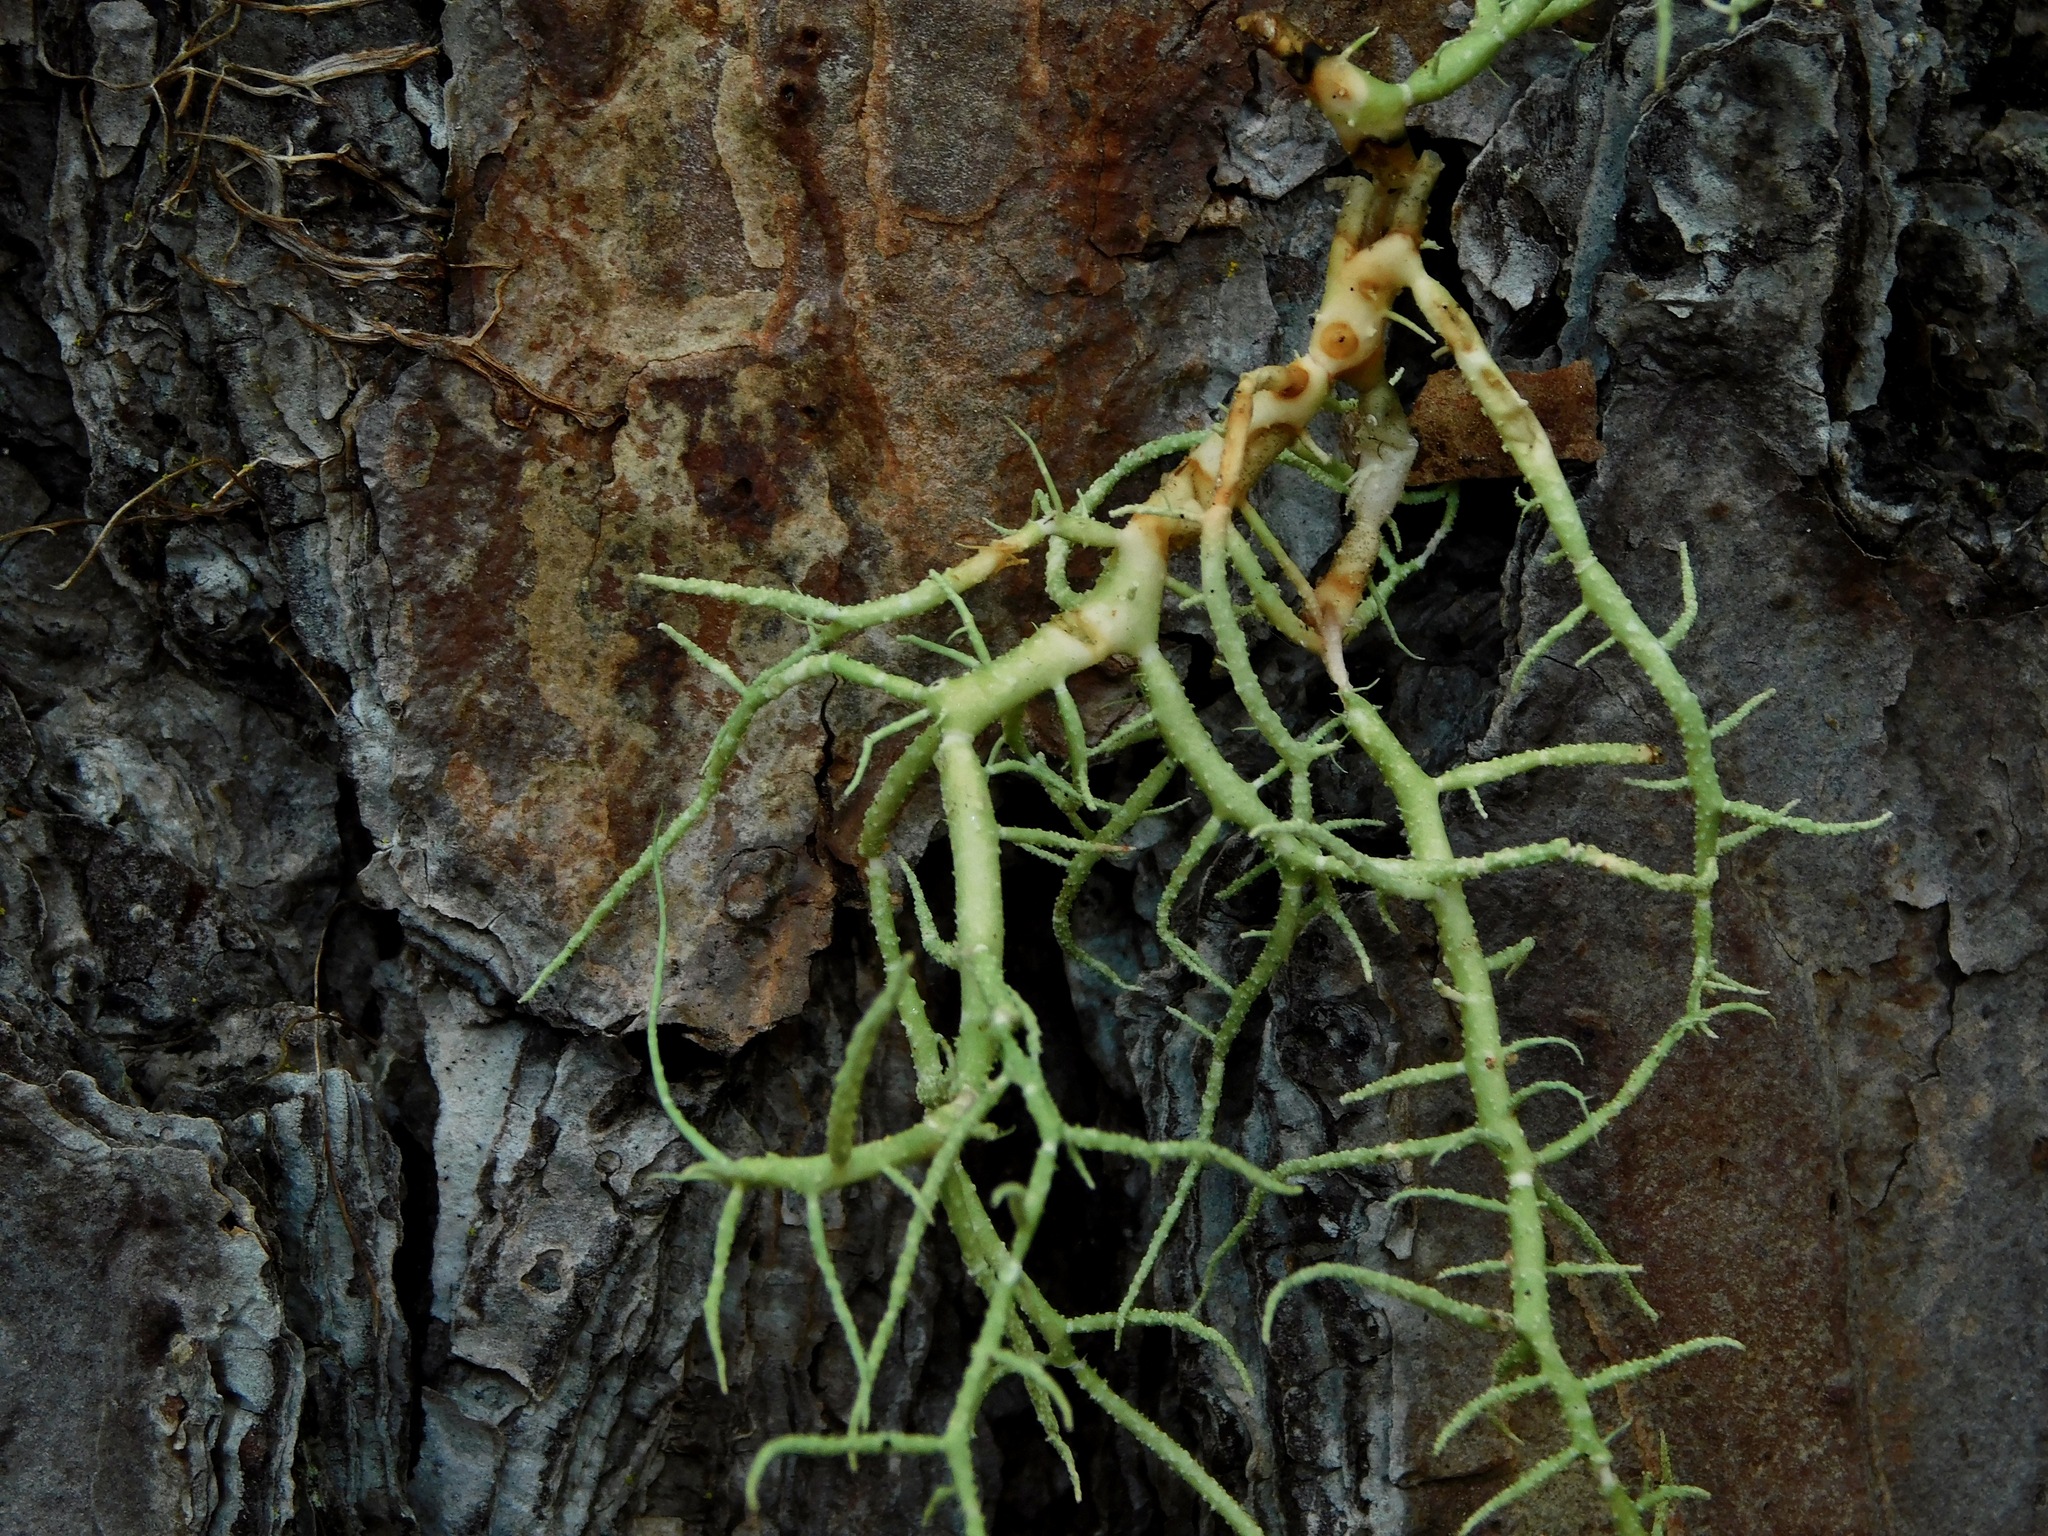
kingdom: Fungi
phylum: Ascomycota
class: Lecanoromycetes
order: Lecanorales
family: Parmeliaceae
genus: Usnea
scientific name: Usnea cornuta
